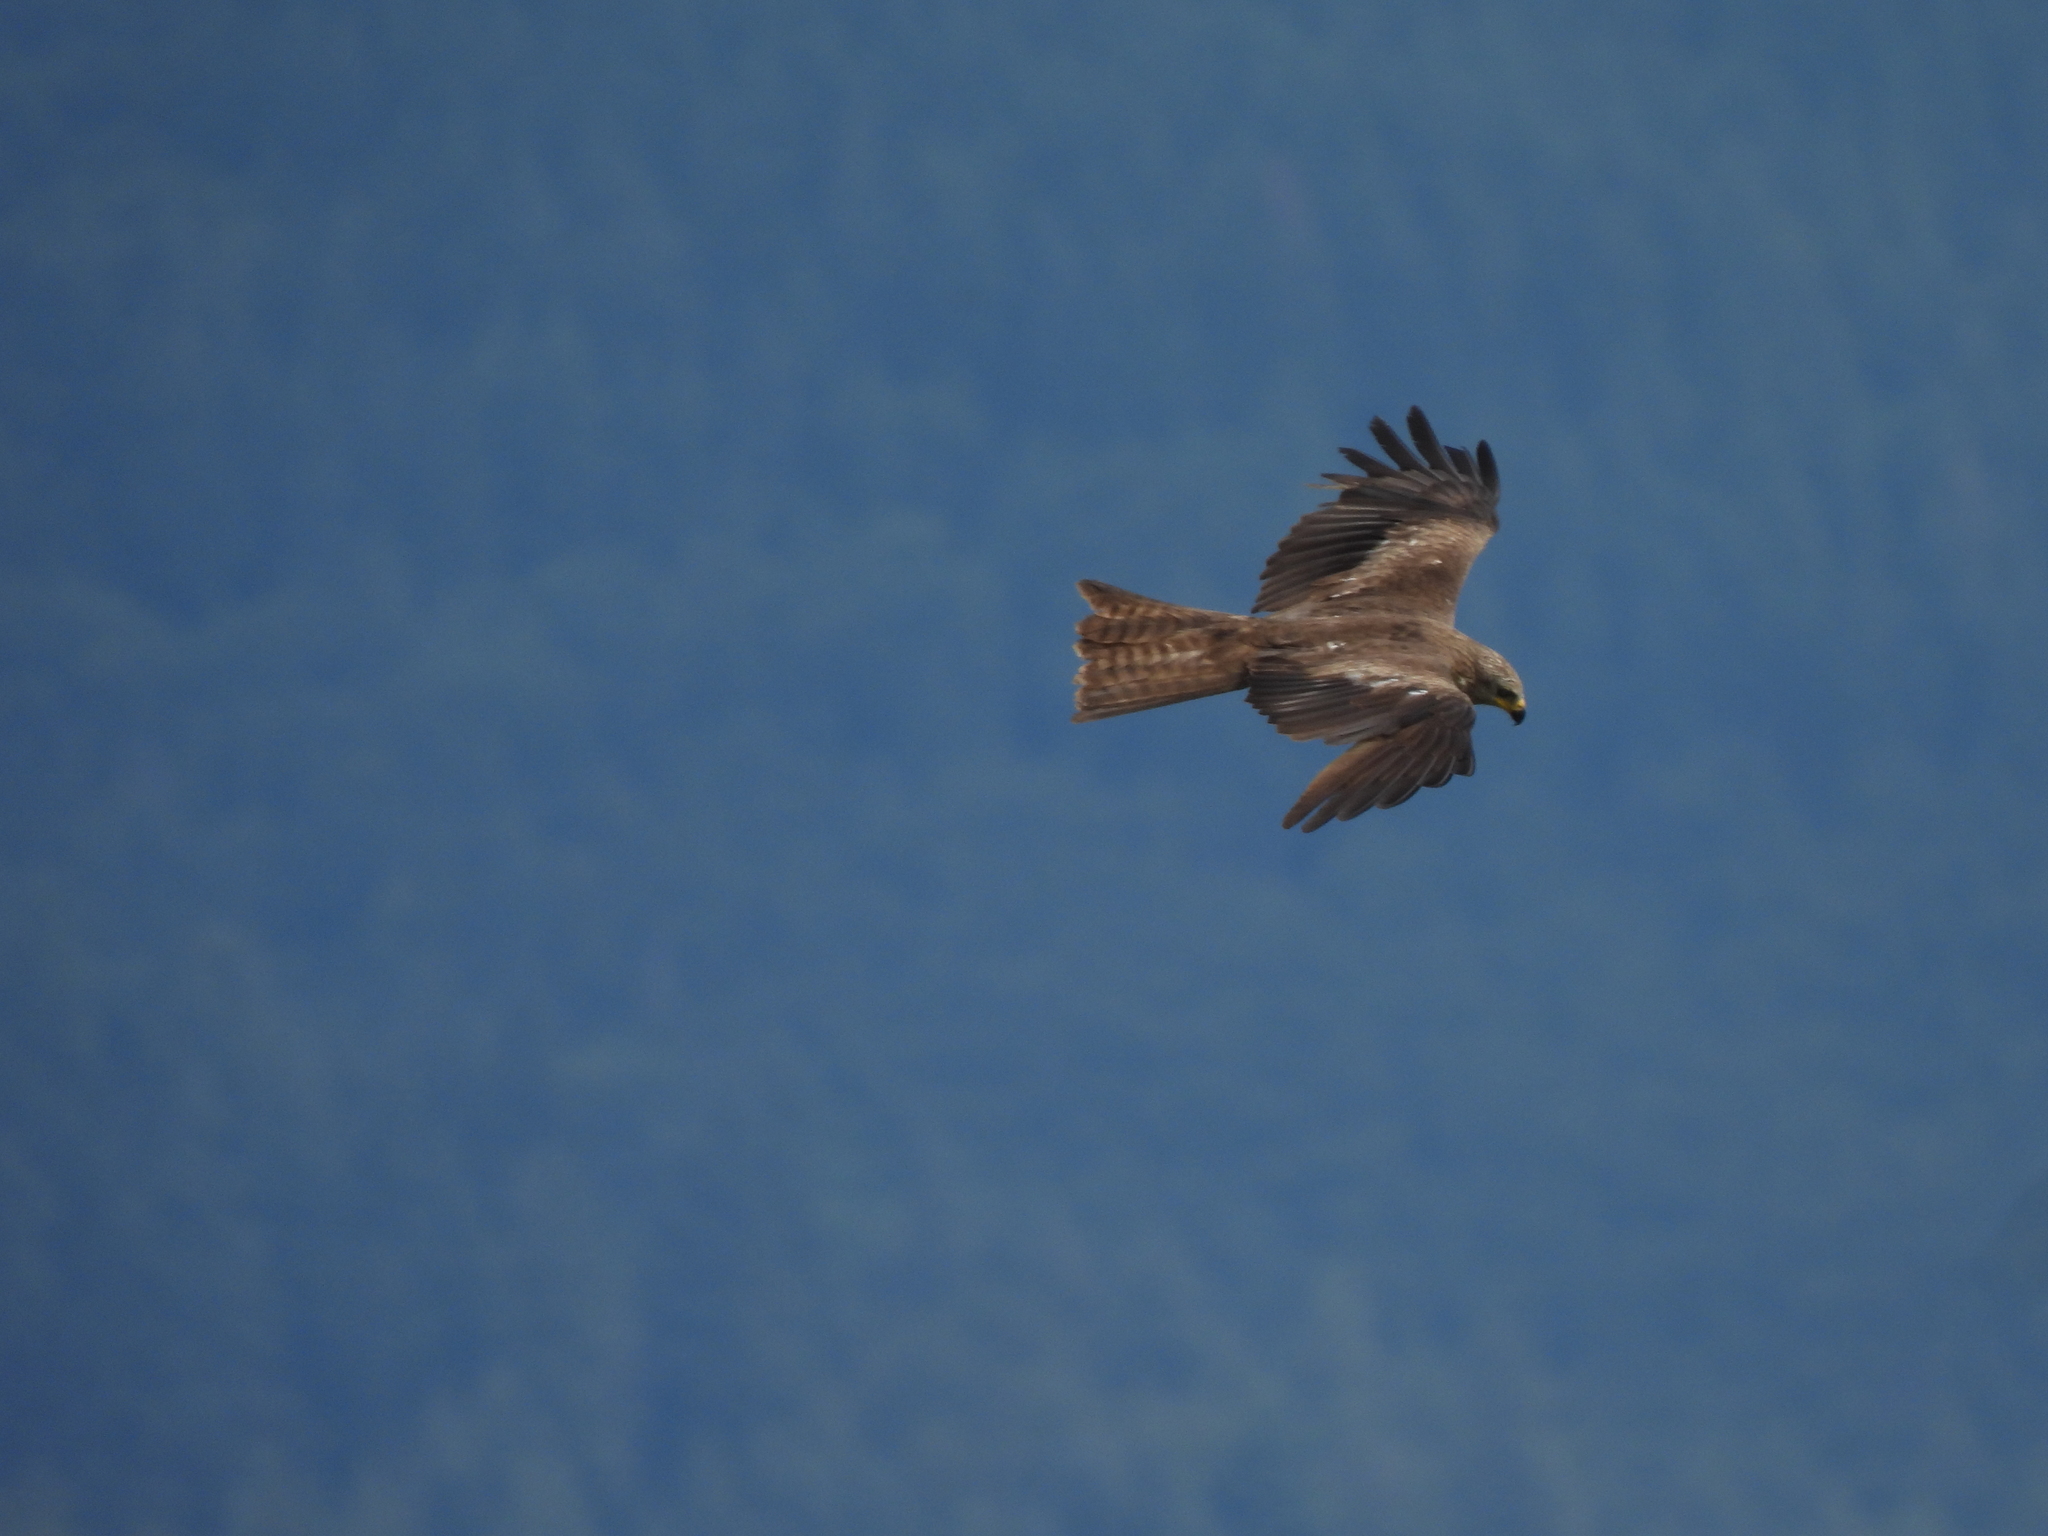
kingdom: Animalia
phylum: Chordata
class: Aves
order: Accipitriformes
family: Accipitridae
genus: Milvus
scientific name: Milvus migrans
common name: Black kite
